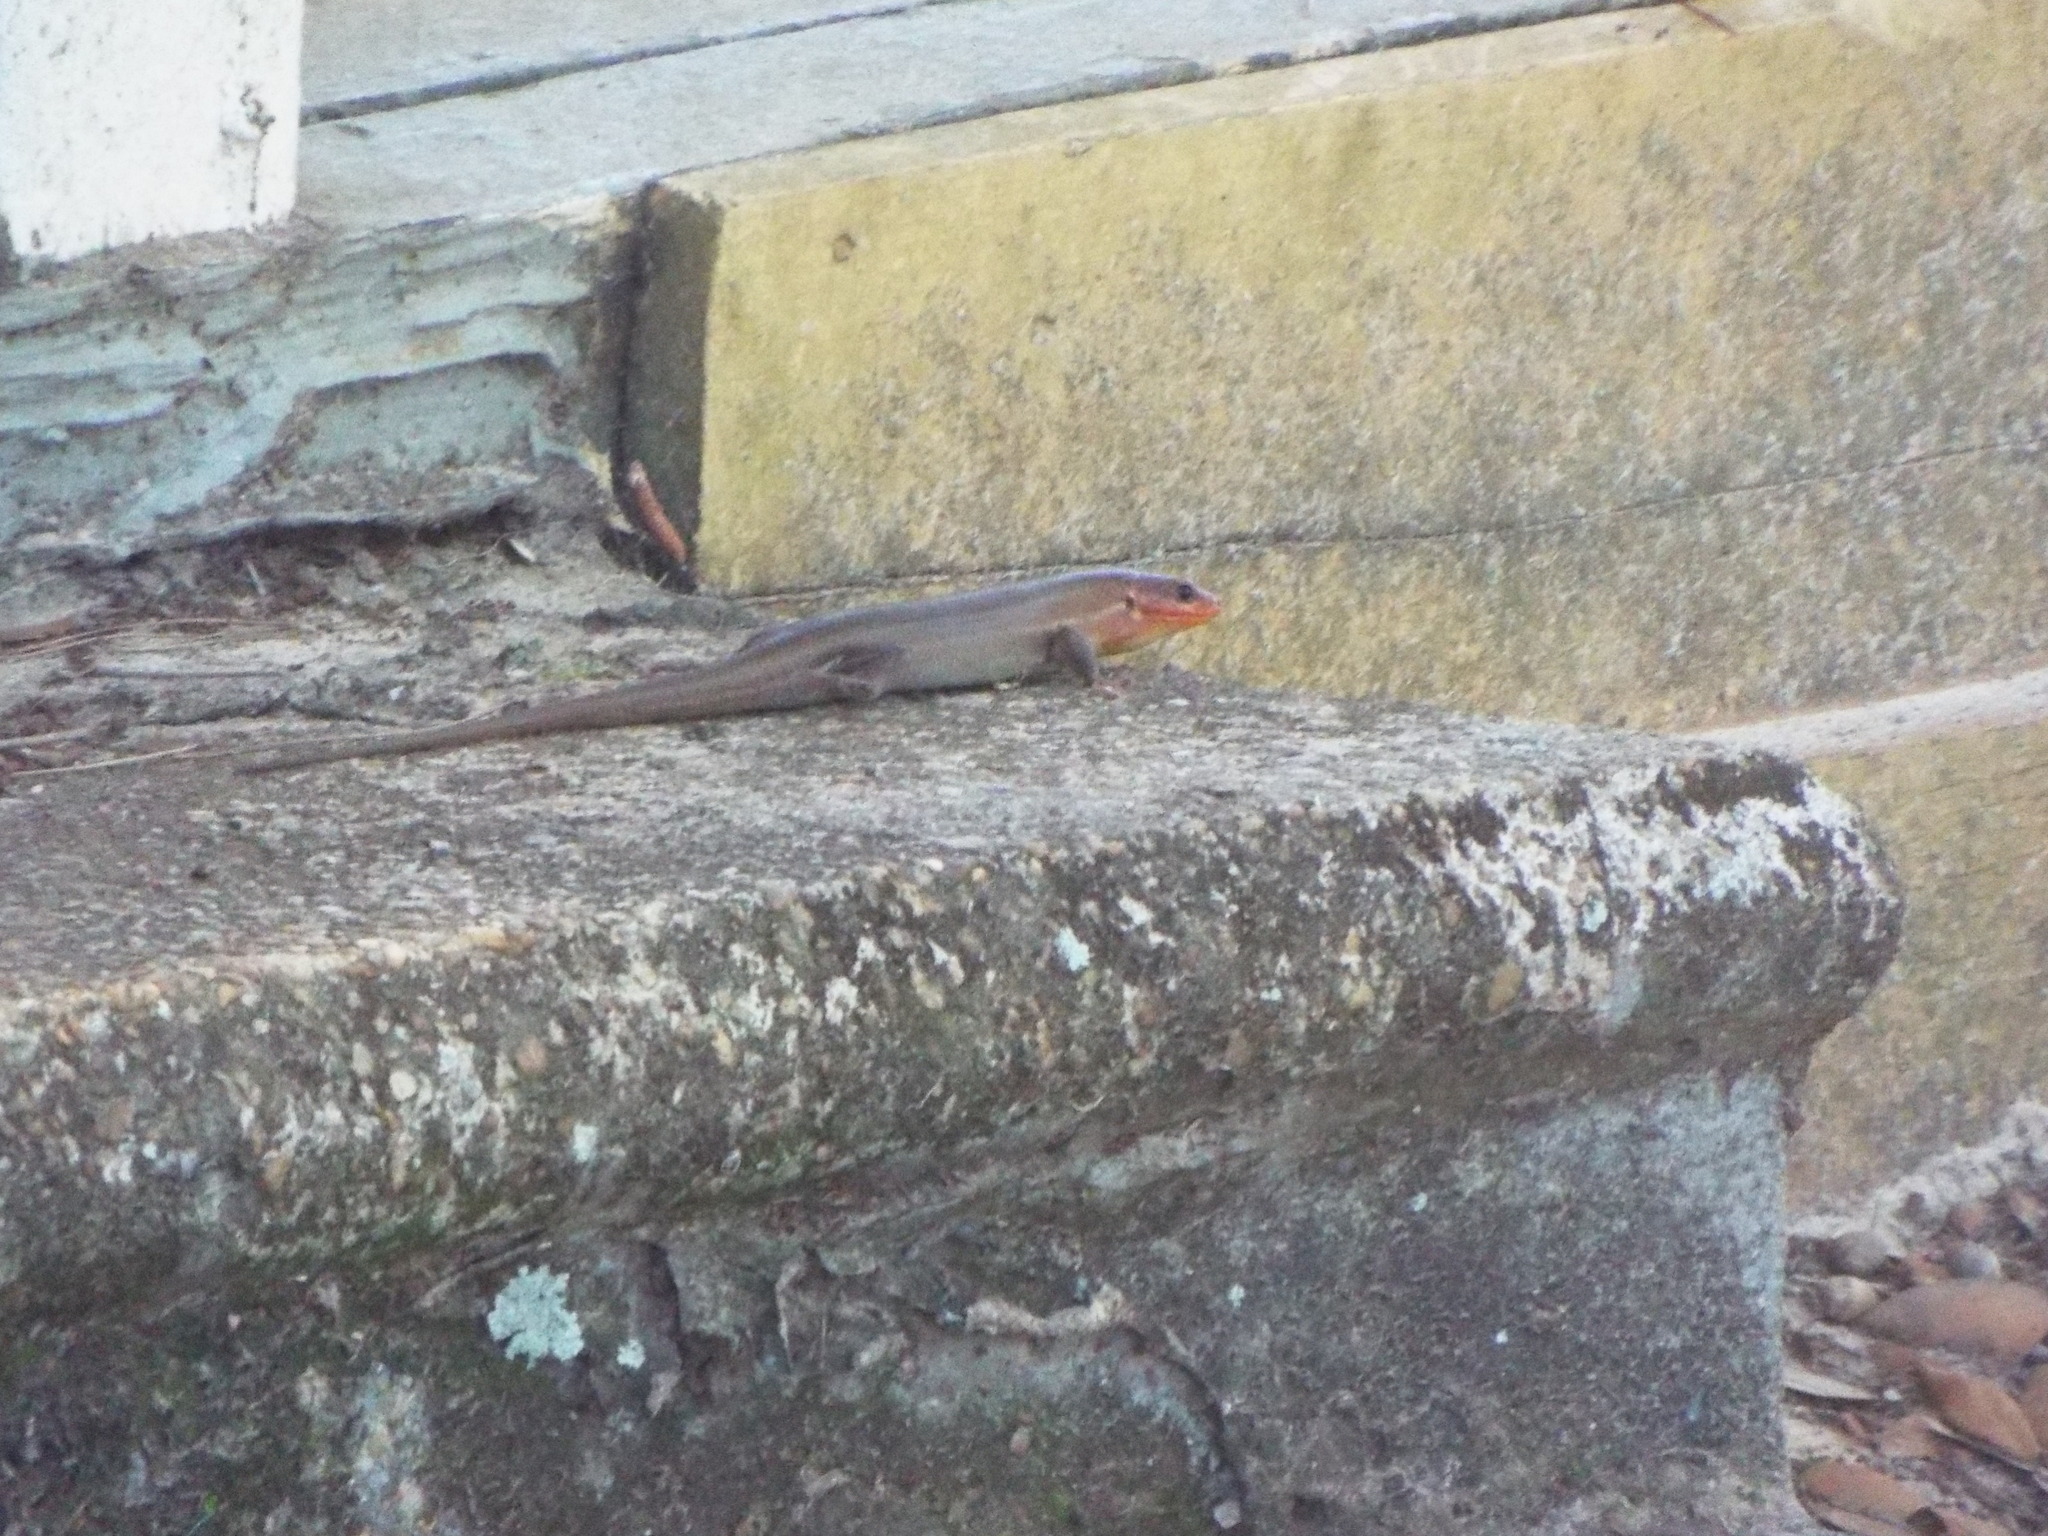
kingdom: Animalia
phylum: Chordata
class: Squamata
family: Scincidae
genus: Plestiodon
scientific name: Plestiodon
